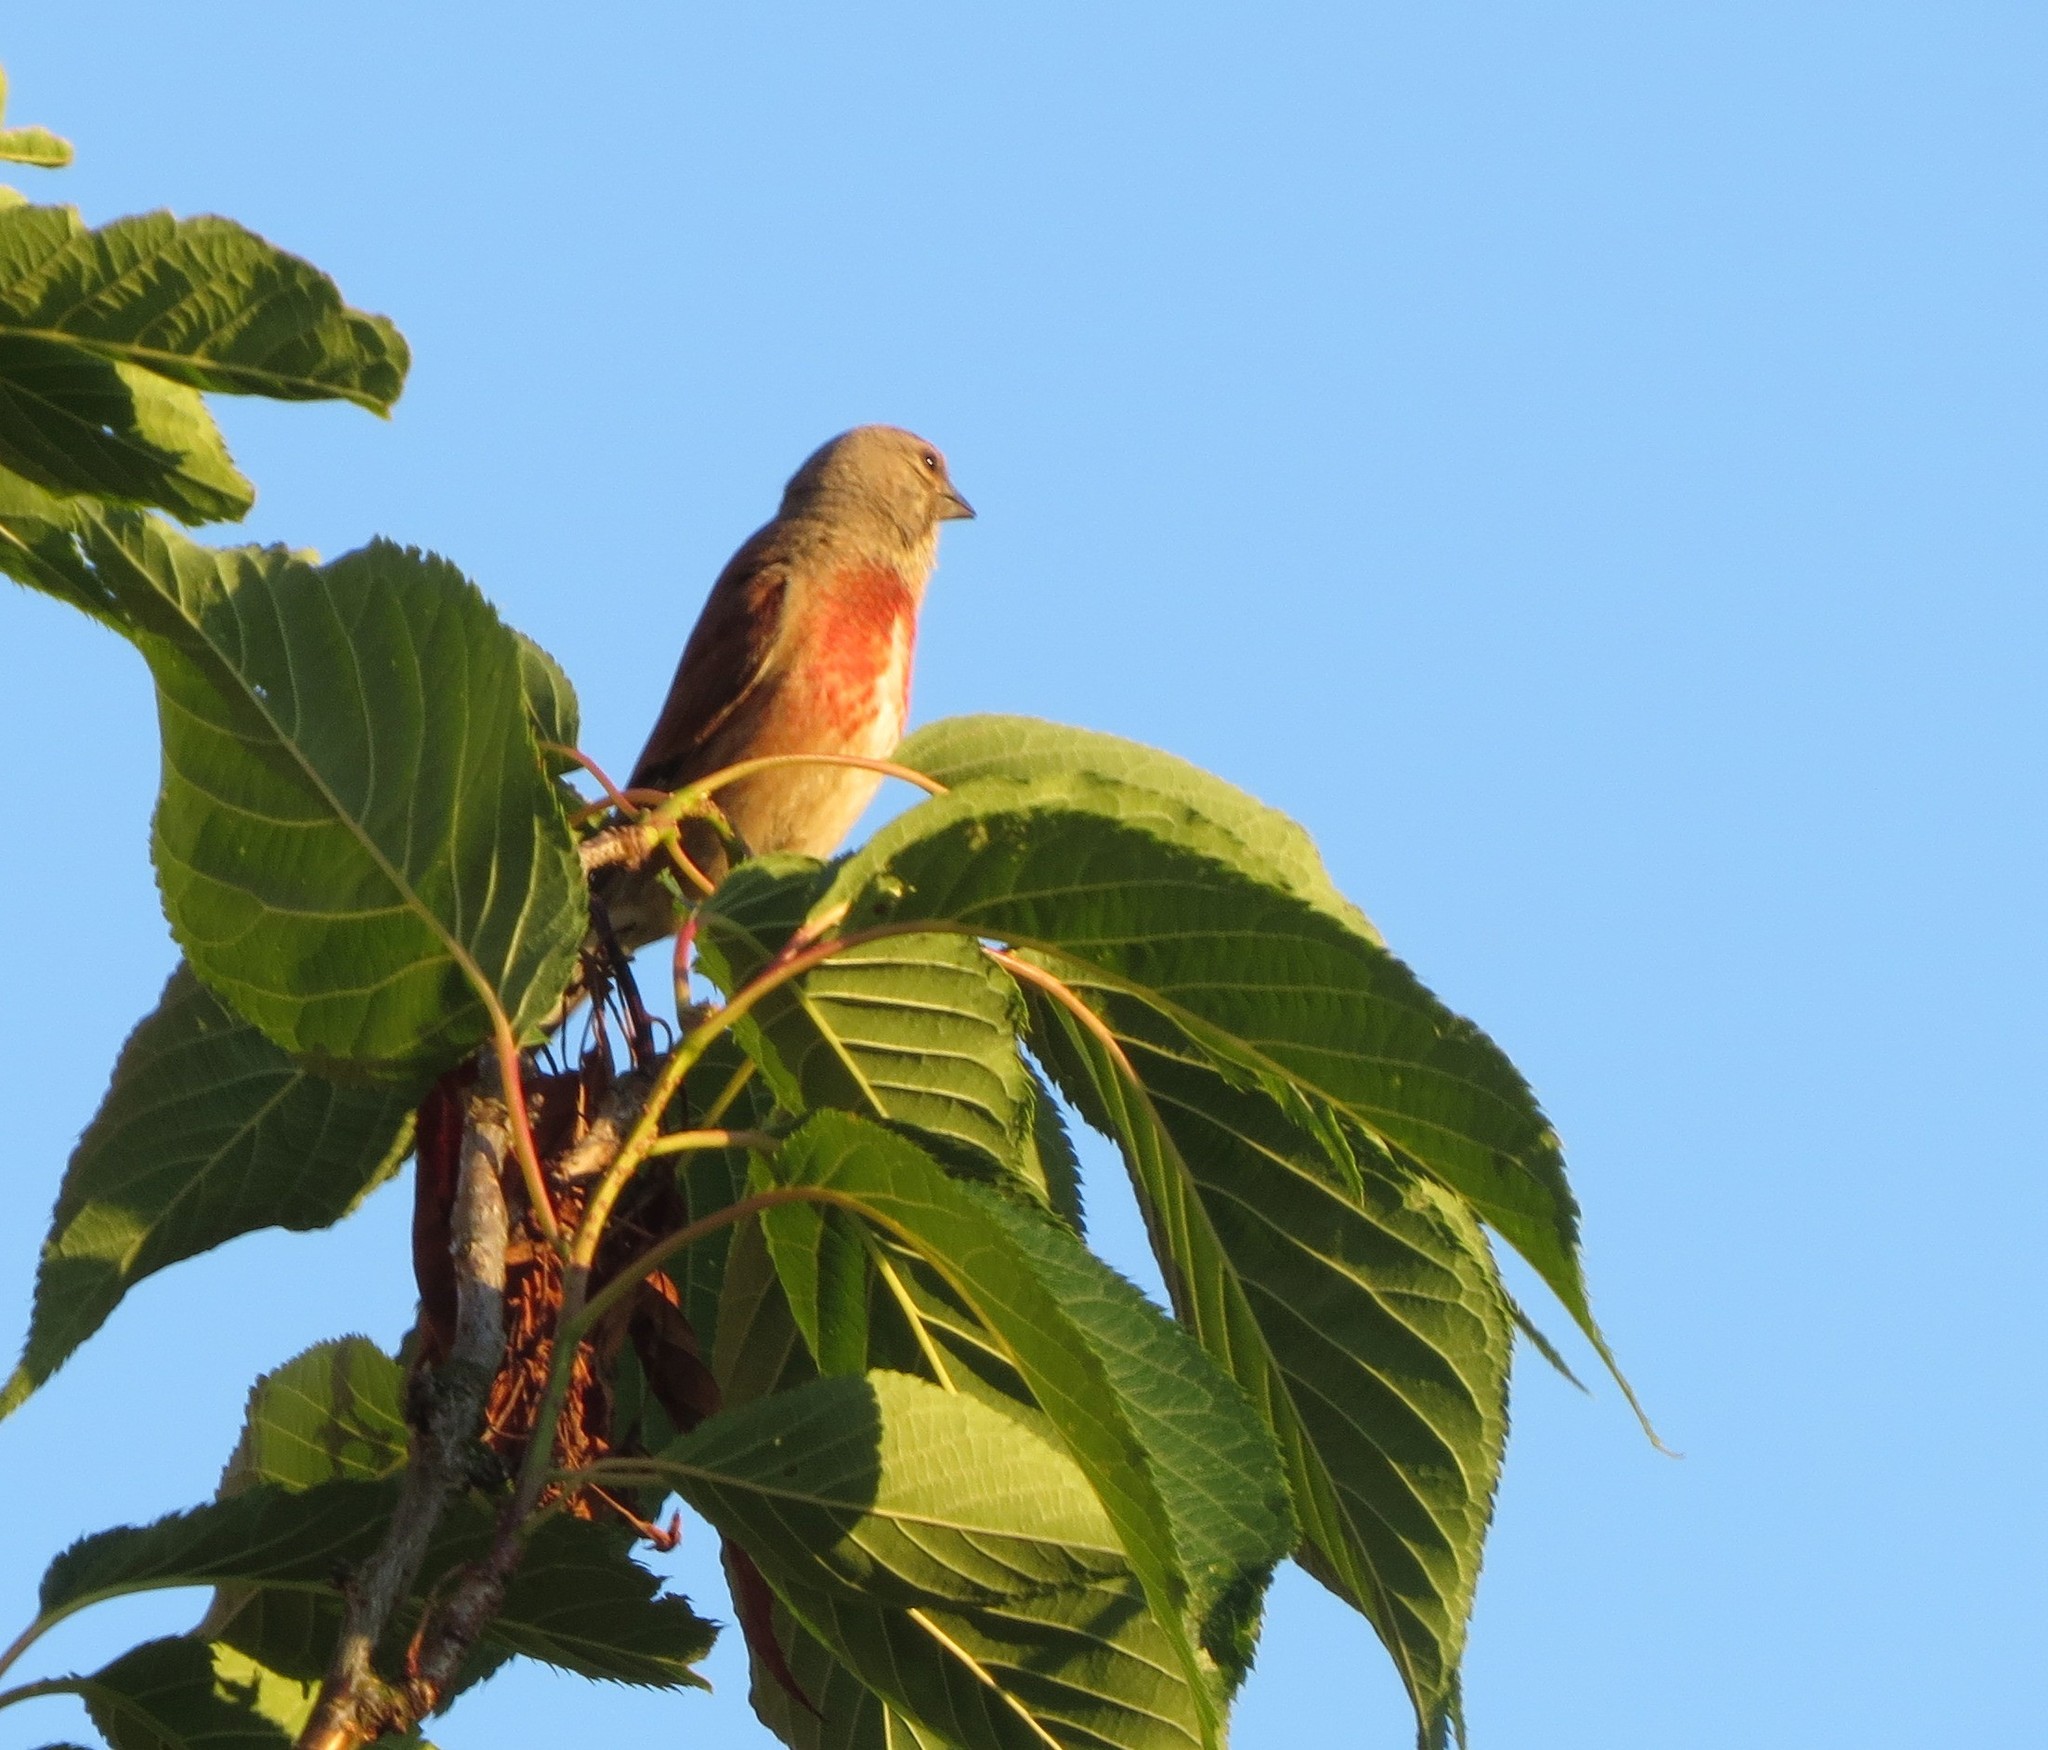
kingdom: Animalia
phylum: Chordata
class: Aves
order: Passeriformes
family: Fringillidae
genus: Linaria
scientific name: Linaria cannabina
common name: Common linnet
